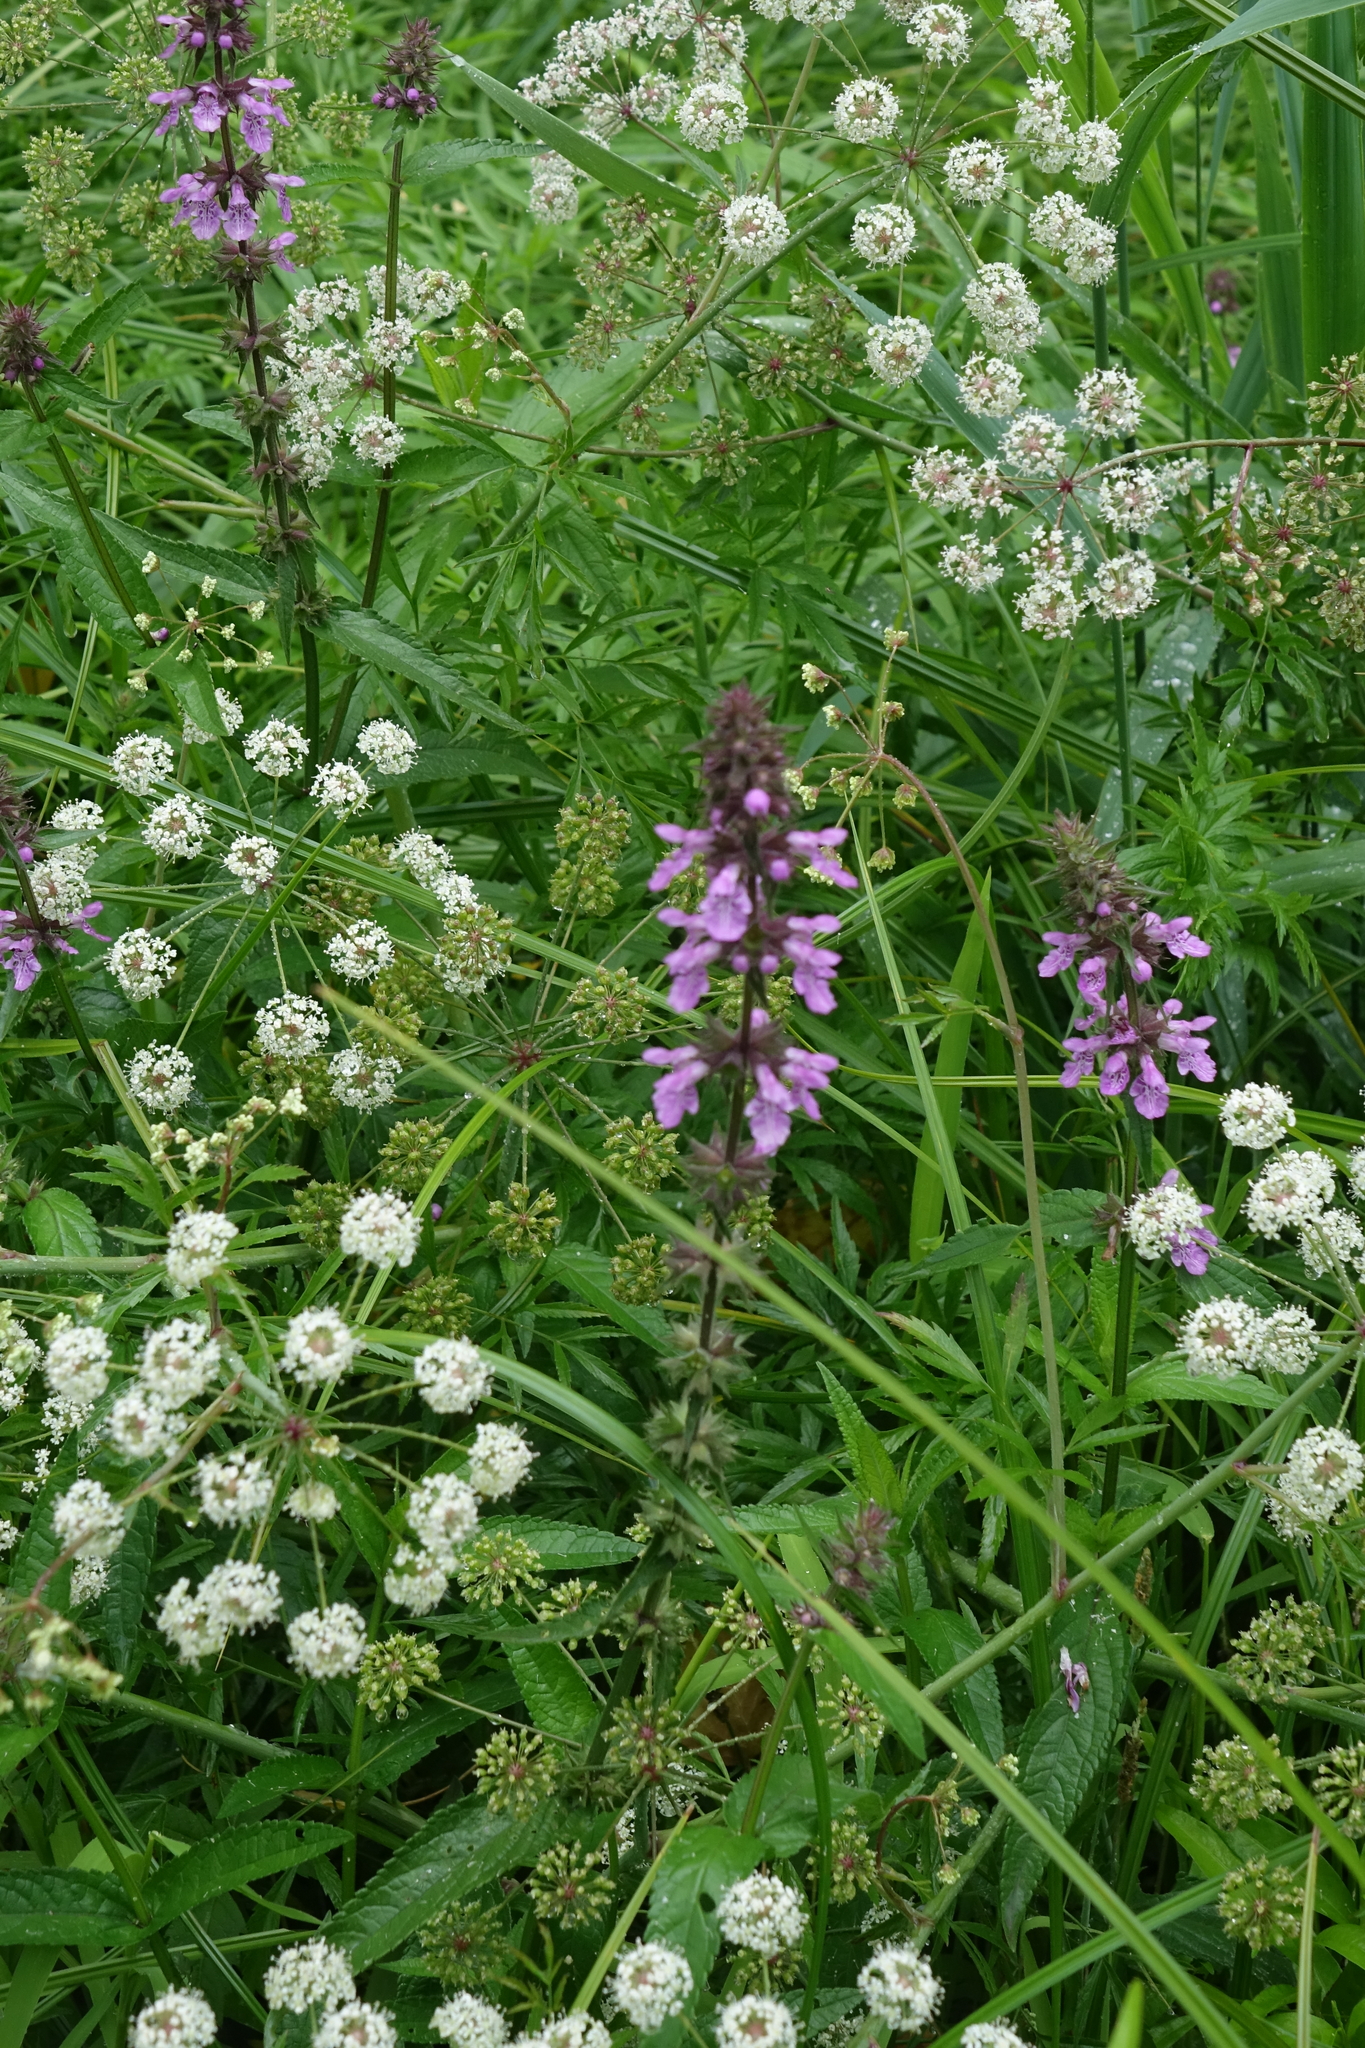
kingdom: Plantae
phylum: Tracheophyta
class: Magnoliopsida
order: Apiales
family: Apiaceae
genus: Cicuta
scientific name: Cicuta virosa
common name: Cowbane
